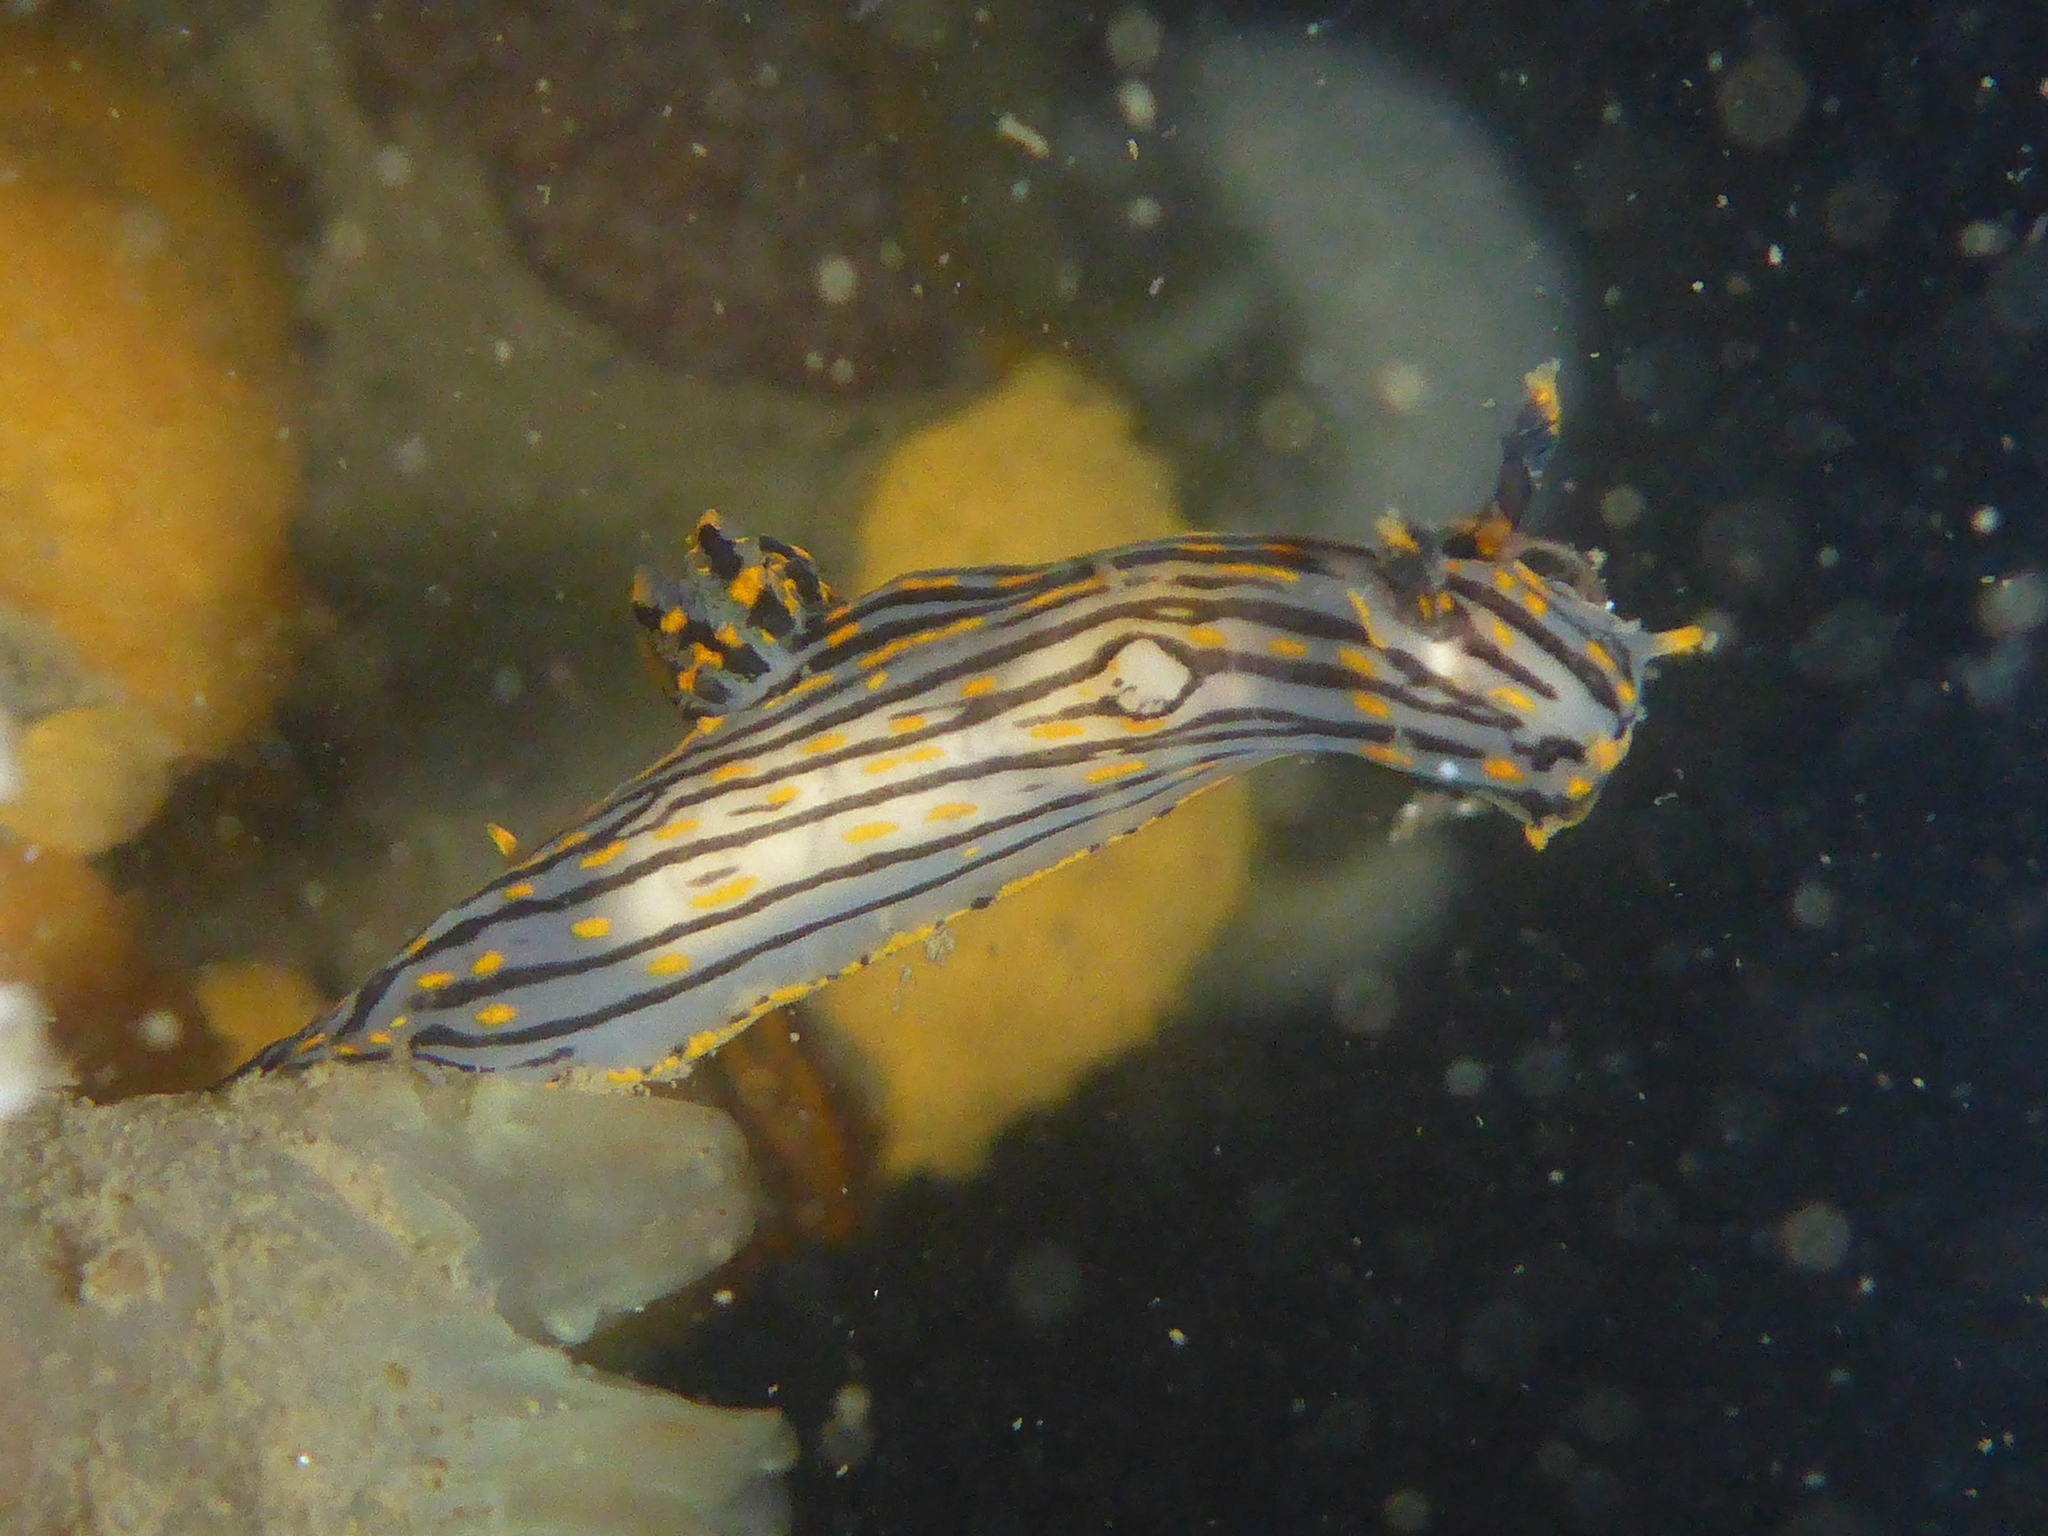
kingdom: Animalia
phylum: Mollusca
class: Gastropoda
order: Nudibranchia
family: Polyceridae
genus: Polycera
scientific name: Polycera atra
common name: Orange-spike polycera
